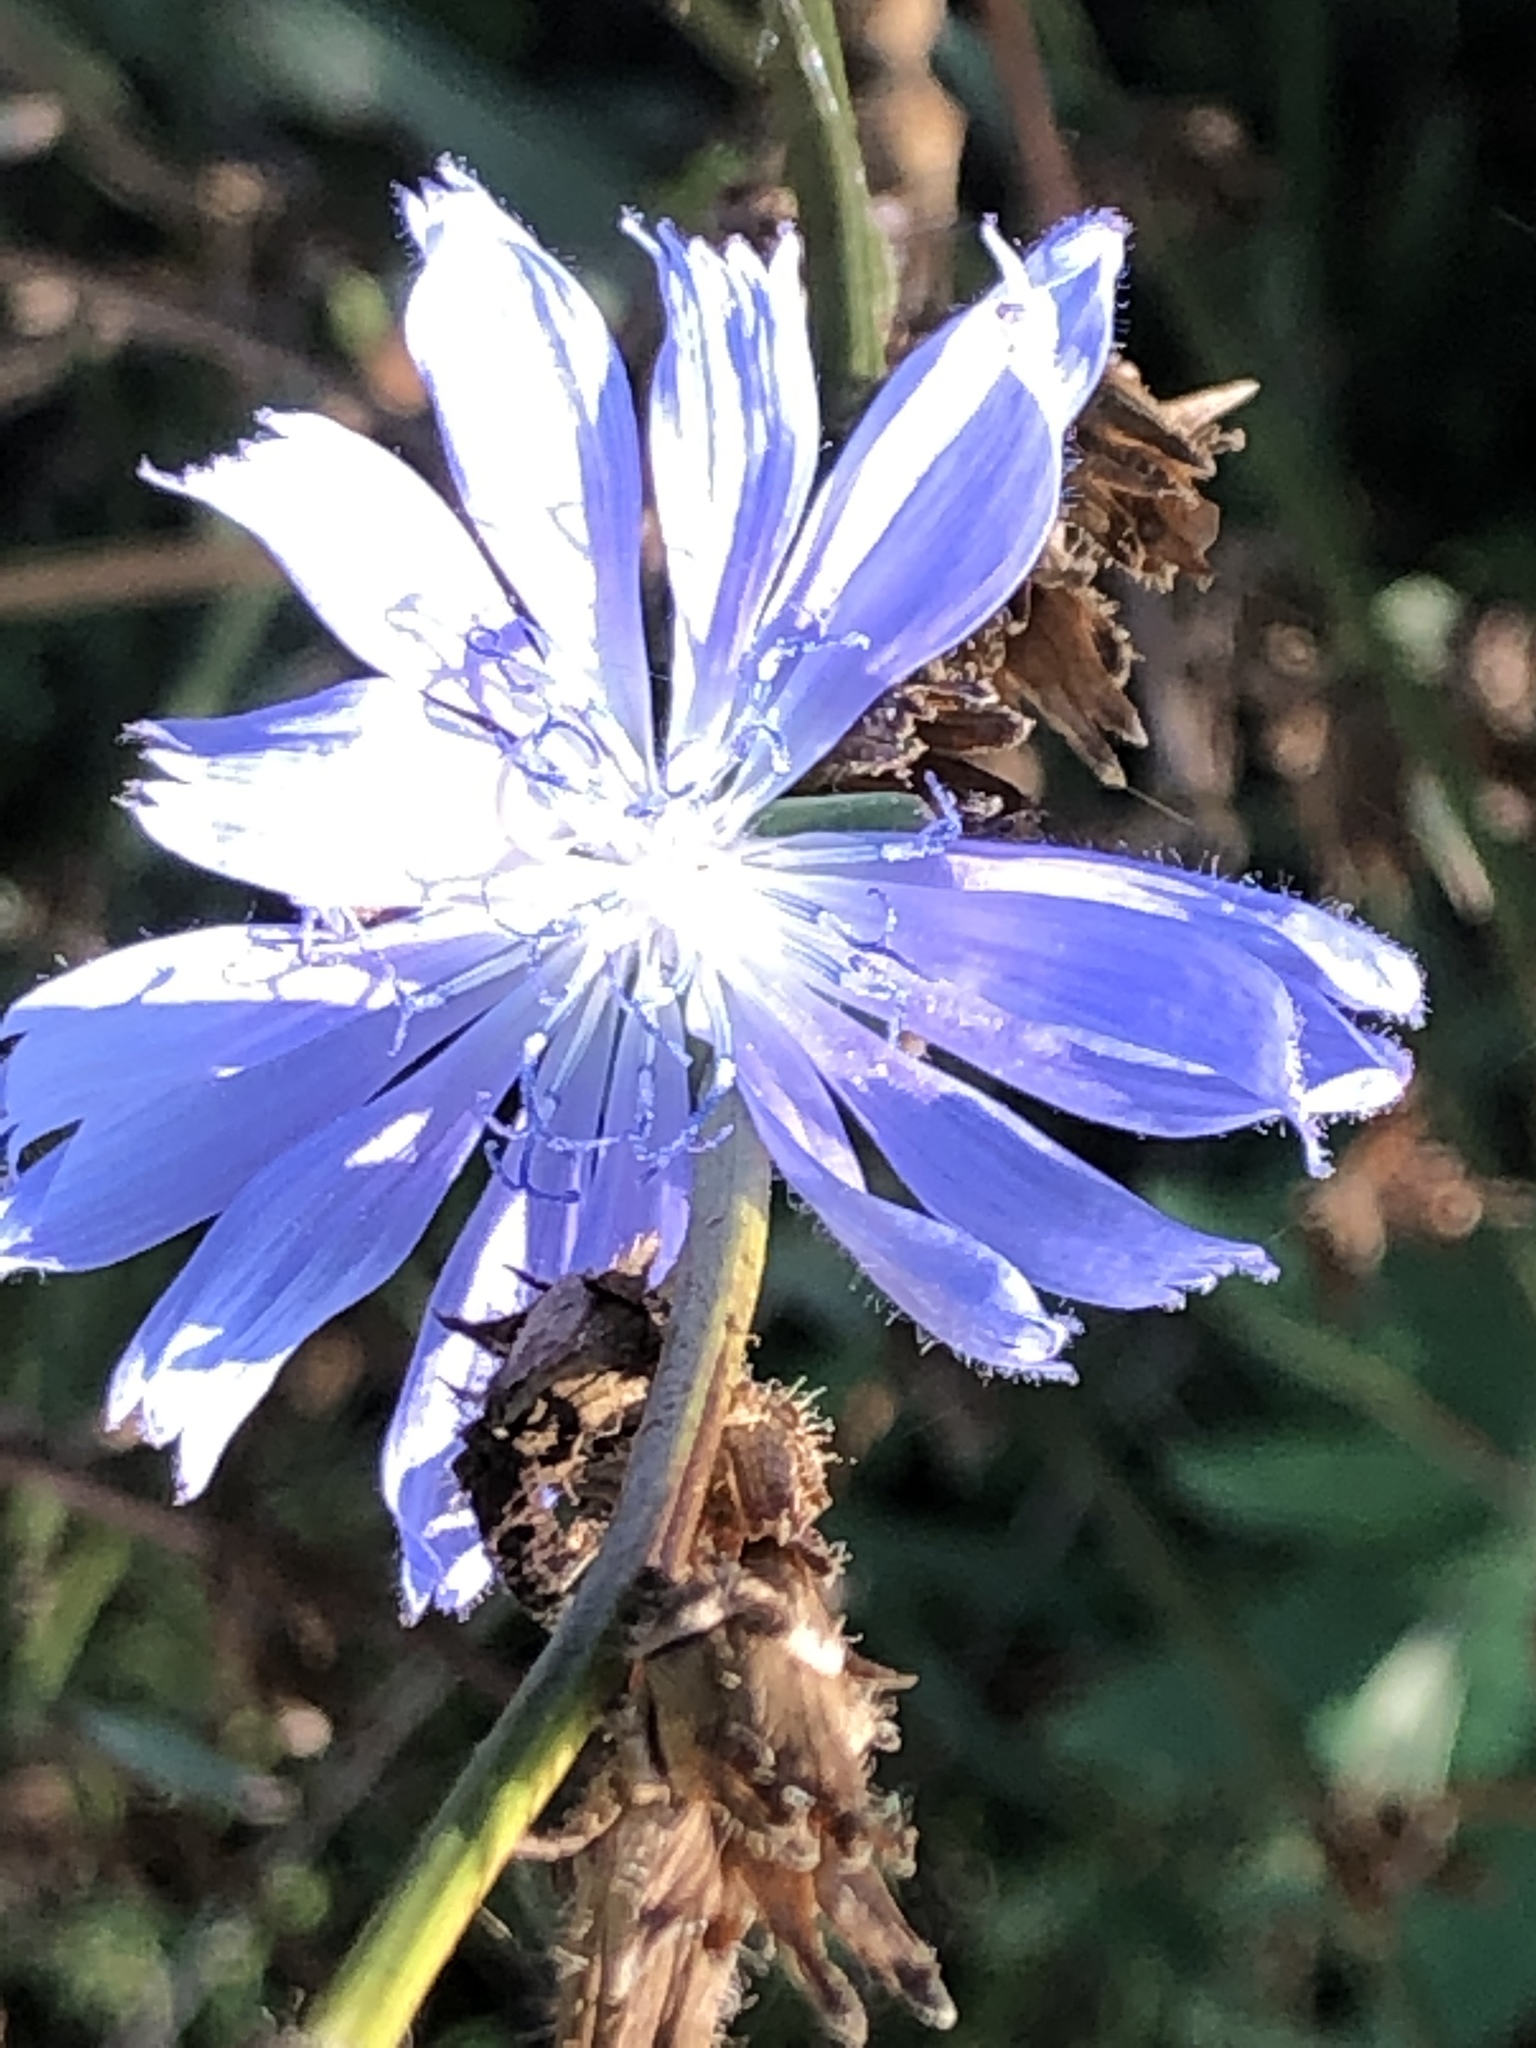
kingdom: Plantae
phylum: Tracheophyta
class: Magnoliopsida
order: Asterales
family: Asteraceae
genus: Cichorium
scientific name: Cichorium intybus
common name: Chicory
